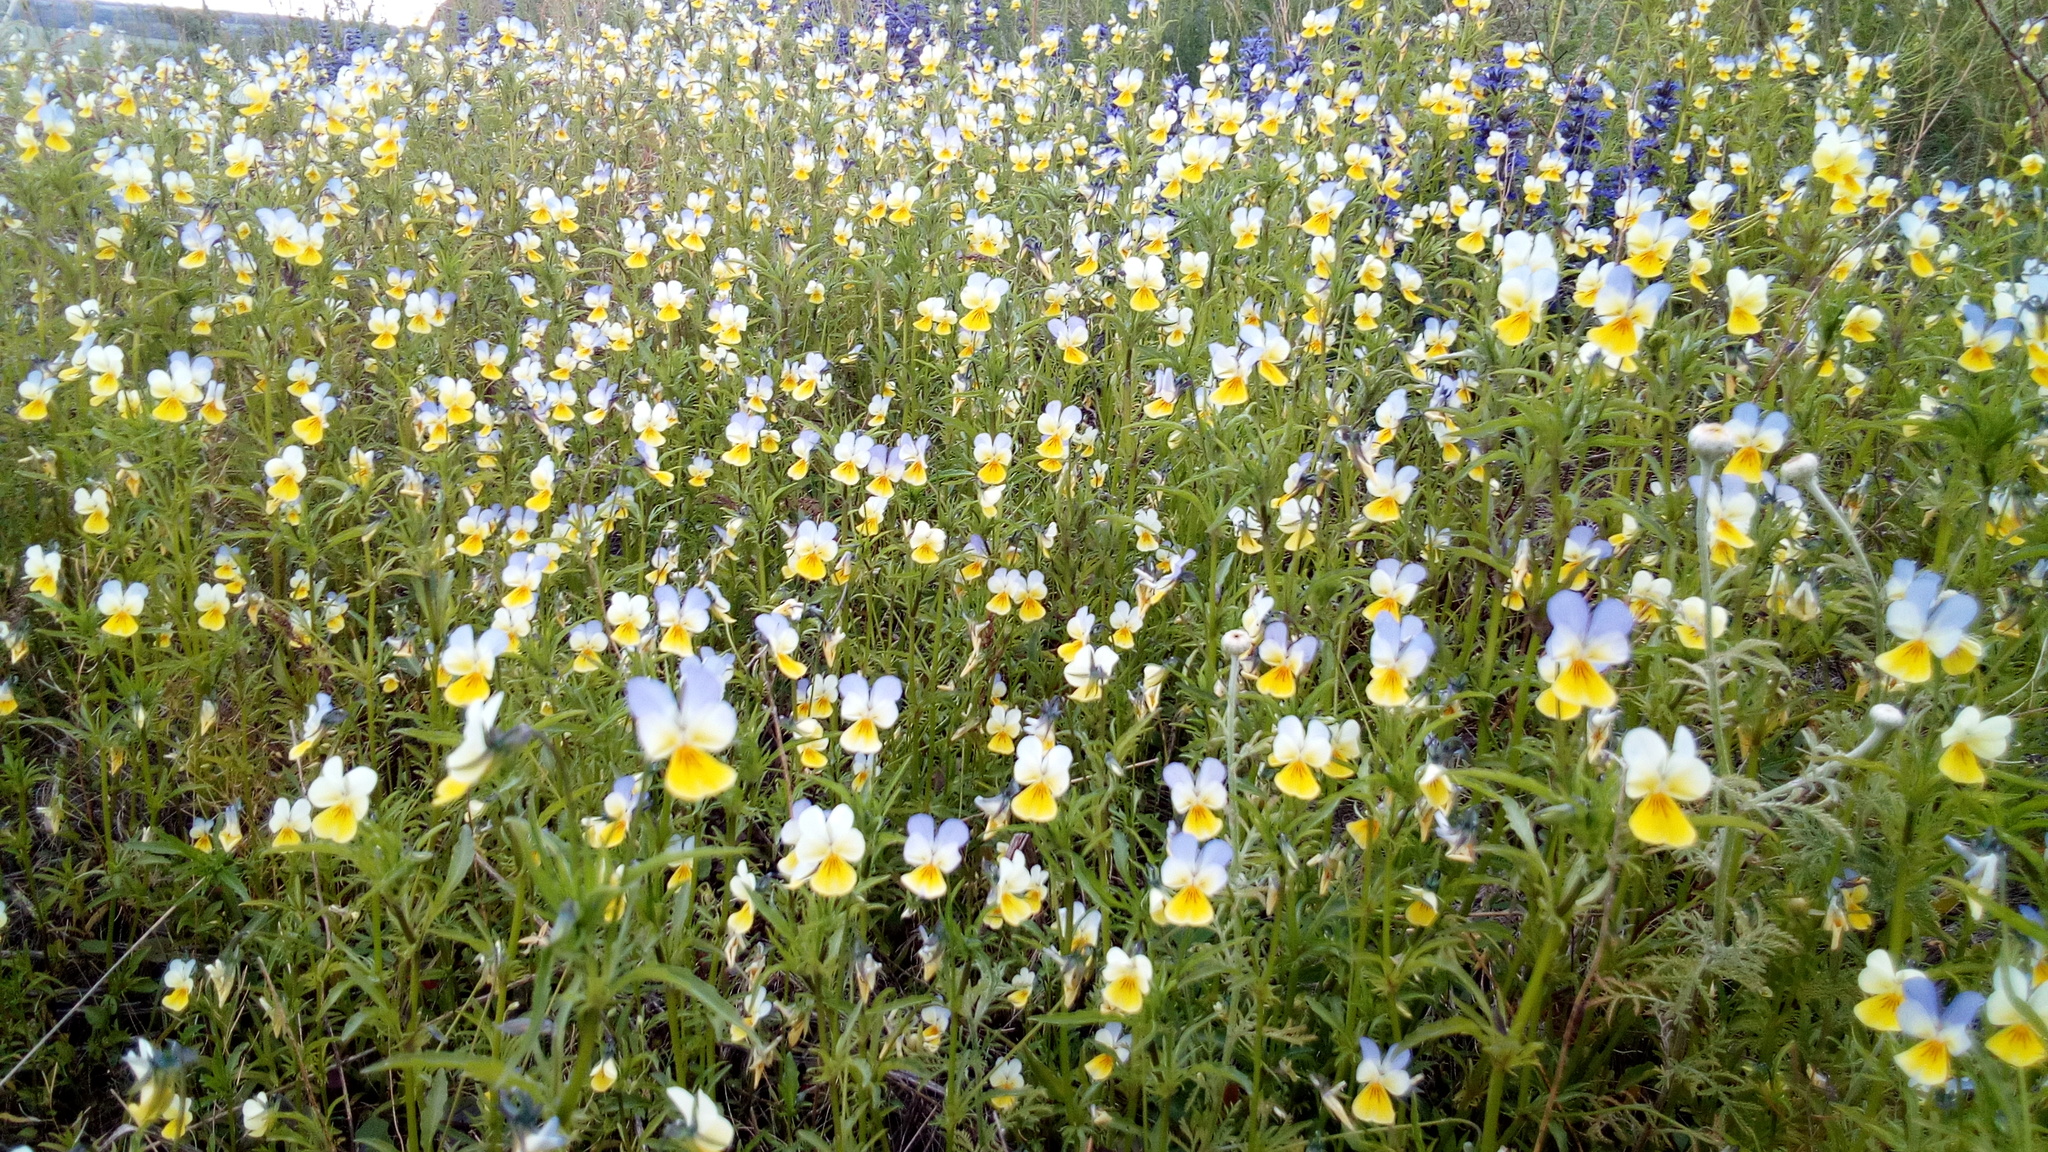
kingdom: Plantae
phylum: Tracheophyta
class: Magnoliopsida
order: Malpighiales
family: Violaceae
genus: Viola
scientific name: Viola tricolor
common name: Pansy
